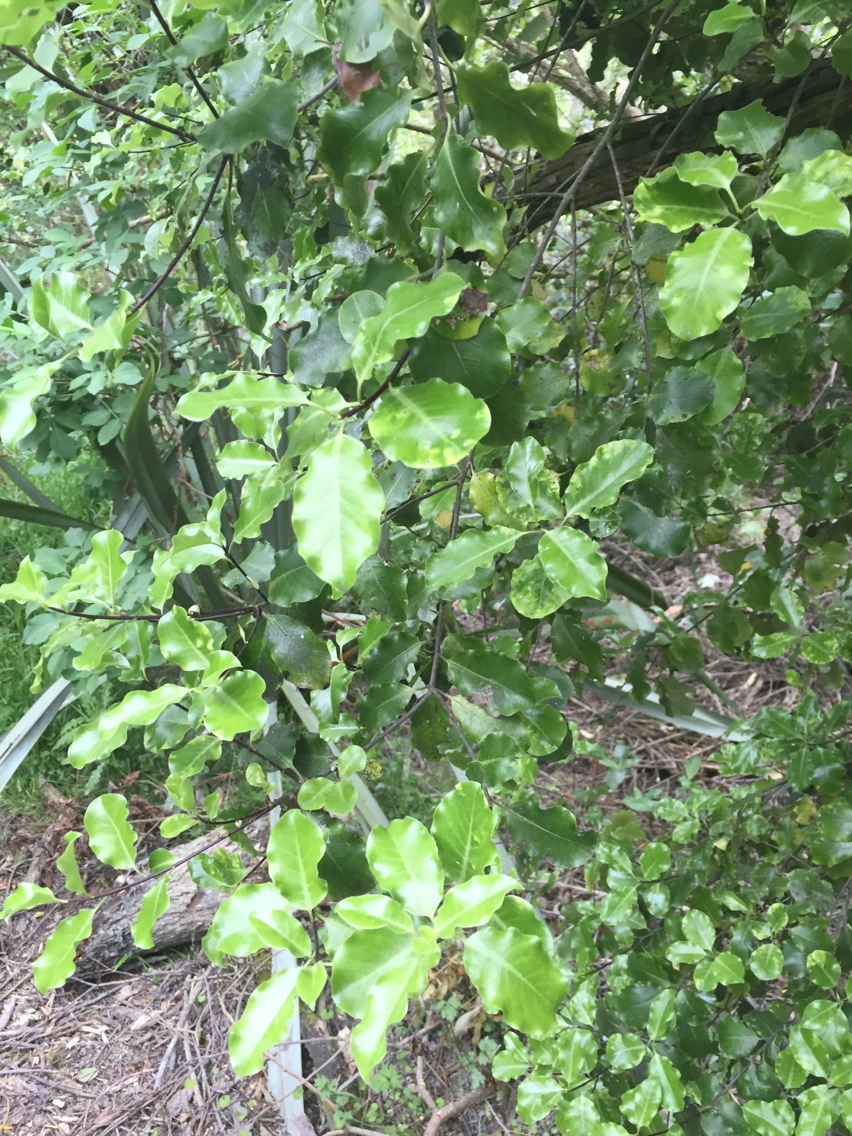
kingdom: Plantae
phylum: Tracheophyta
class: Magnoliopsida
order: Apiales
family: Pittosporaceae
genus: Pittosporum
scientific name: Pittosporum tenuifolium
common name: Kohuhu
